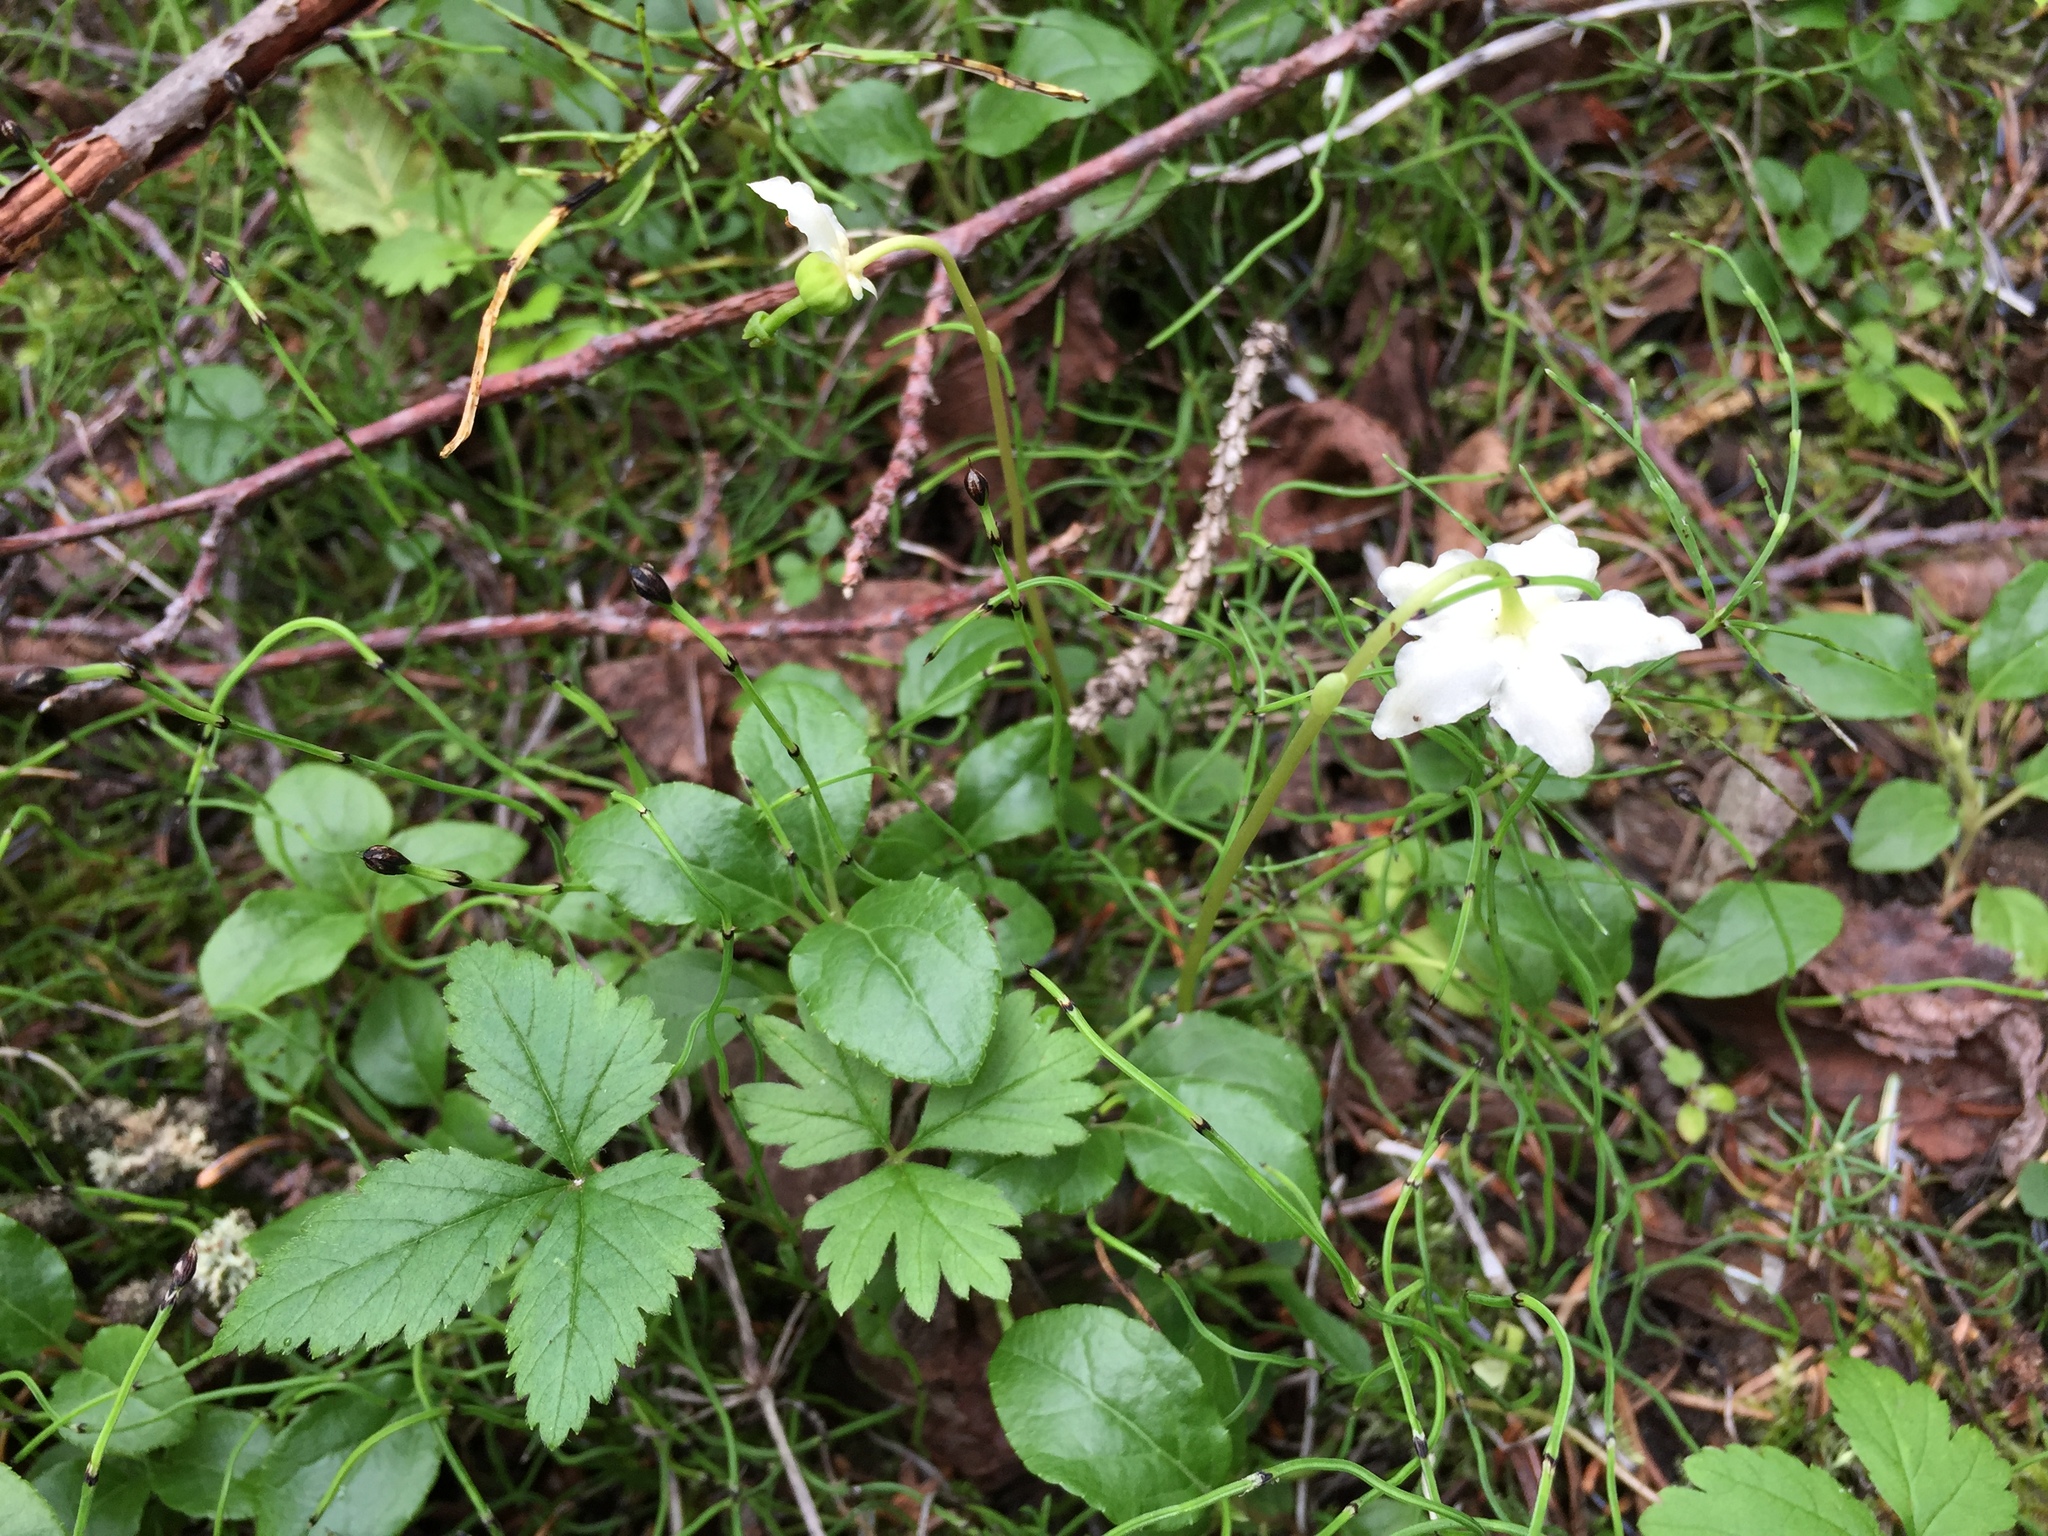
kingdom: Plantae
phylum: Tracheophyta
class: Magnoliopsida
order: Ericales
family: Ericaceae
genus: Moneses
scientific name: Moneses uniflora
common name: One-flowered wintergreen
